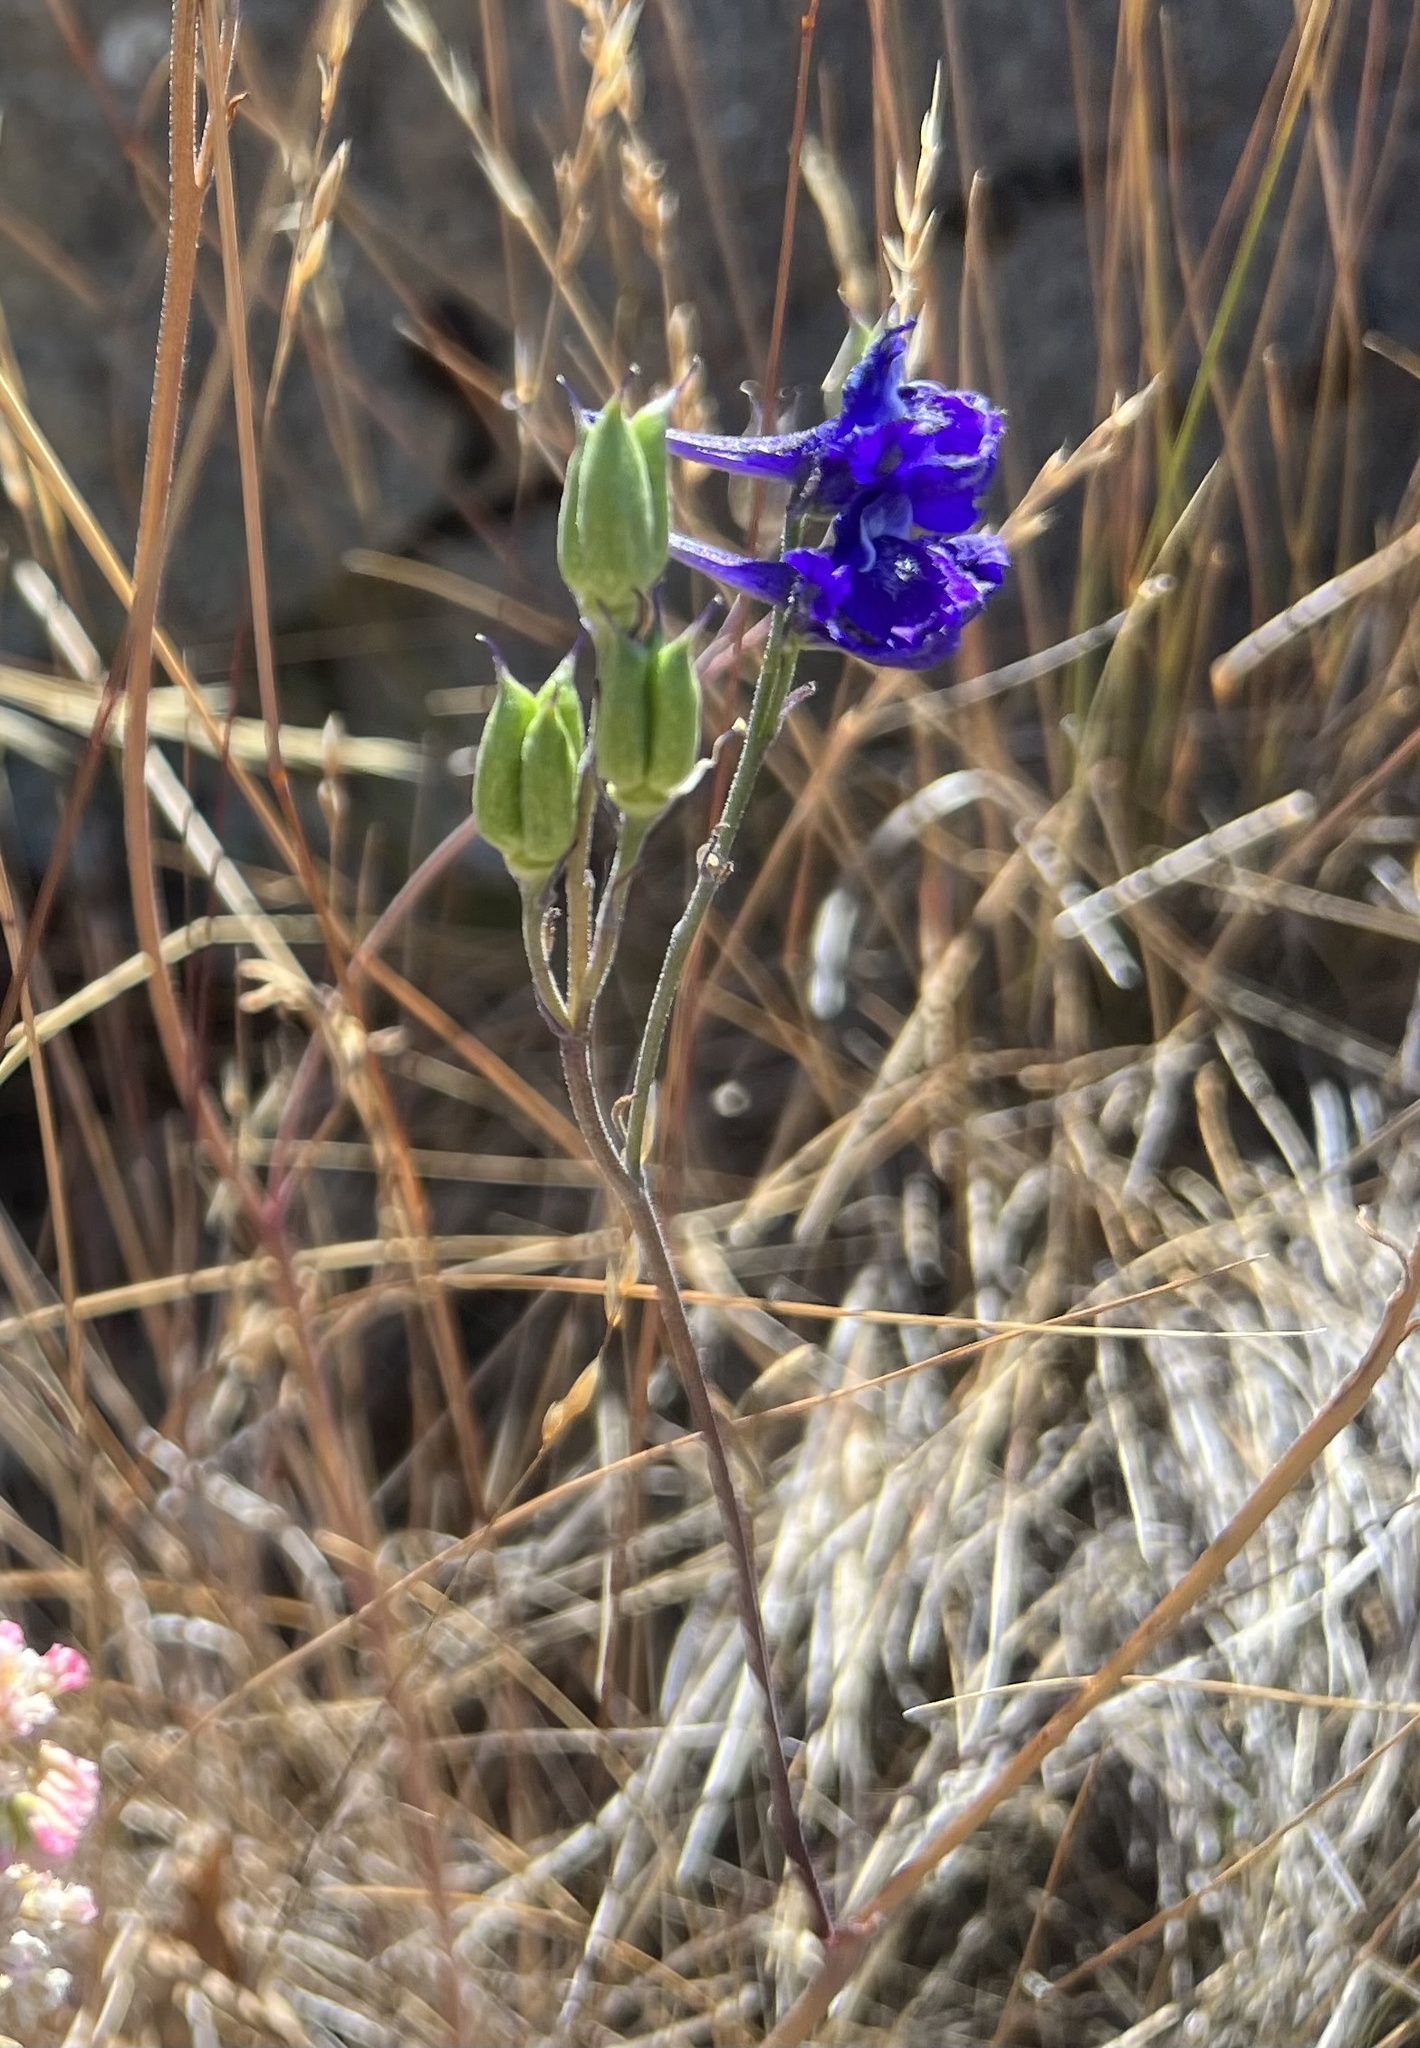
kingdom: Plantae
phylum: Tracheophyta
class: Magnoliopsida
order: Ranunculales
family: Ranunculaceae
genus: Delphinium
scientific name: Delphinium hesperium
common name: Western larkspur
